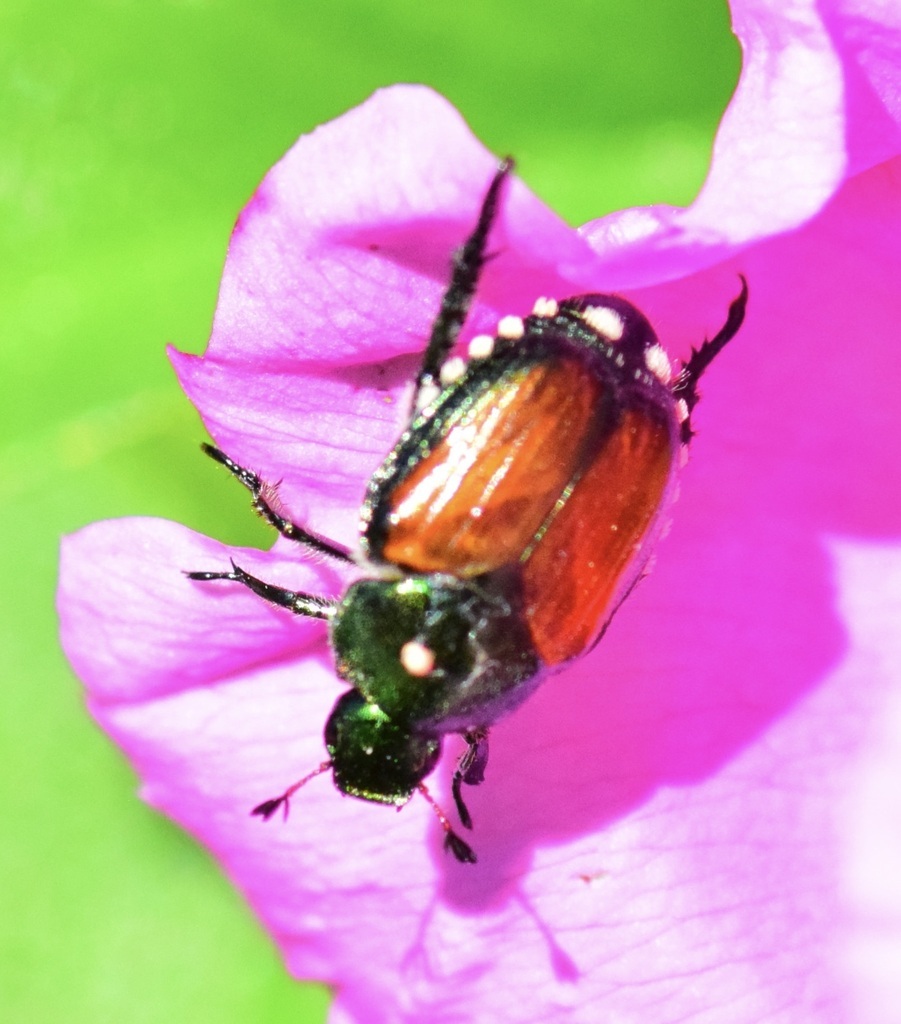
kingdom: Animalia
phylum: Arthropoda
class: Insecta
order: Diptera
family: Tachinidae
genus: Istocheta
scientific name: Istocheta aldrichi
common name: Parasitic wasp
